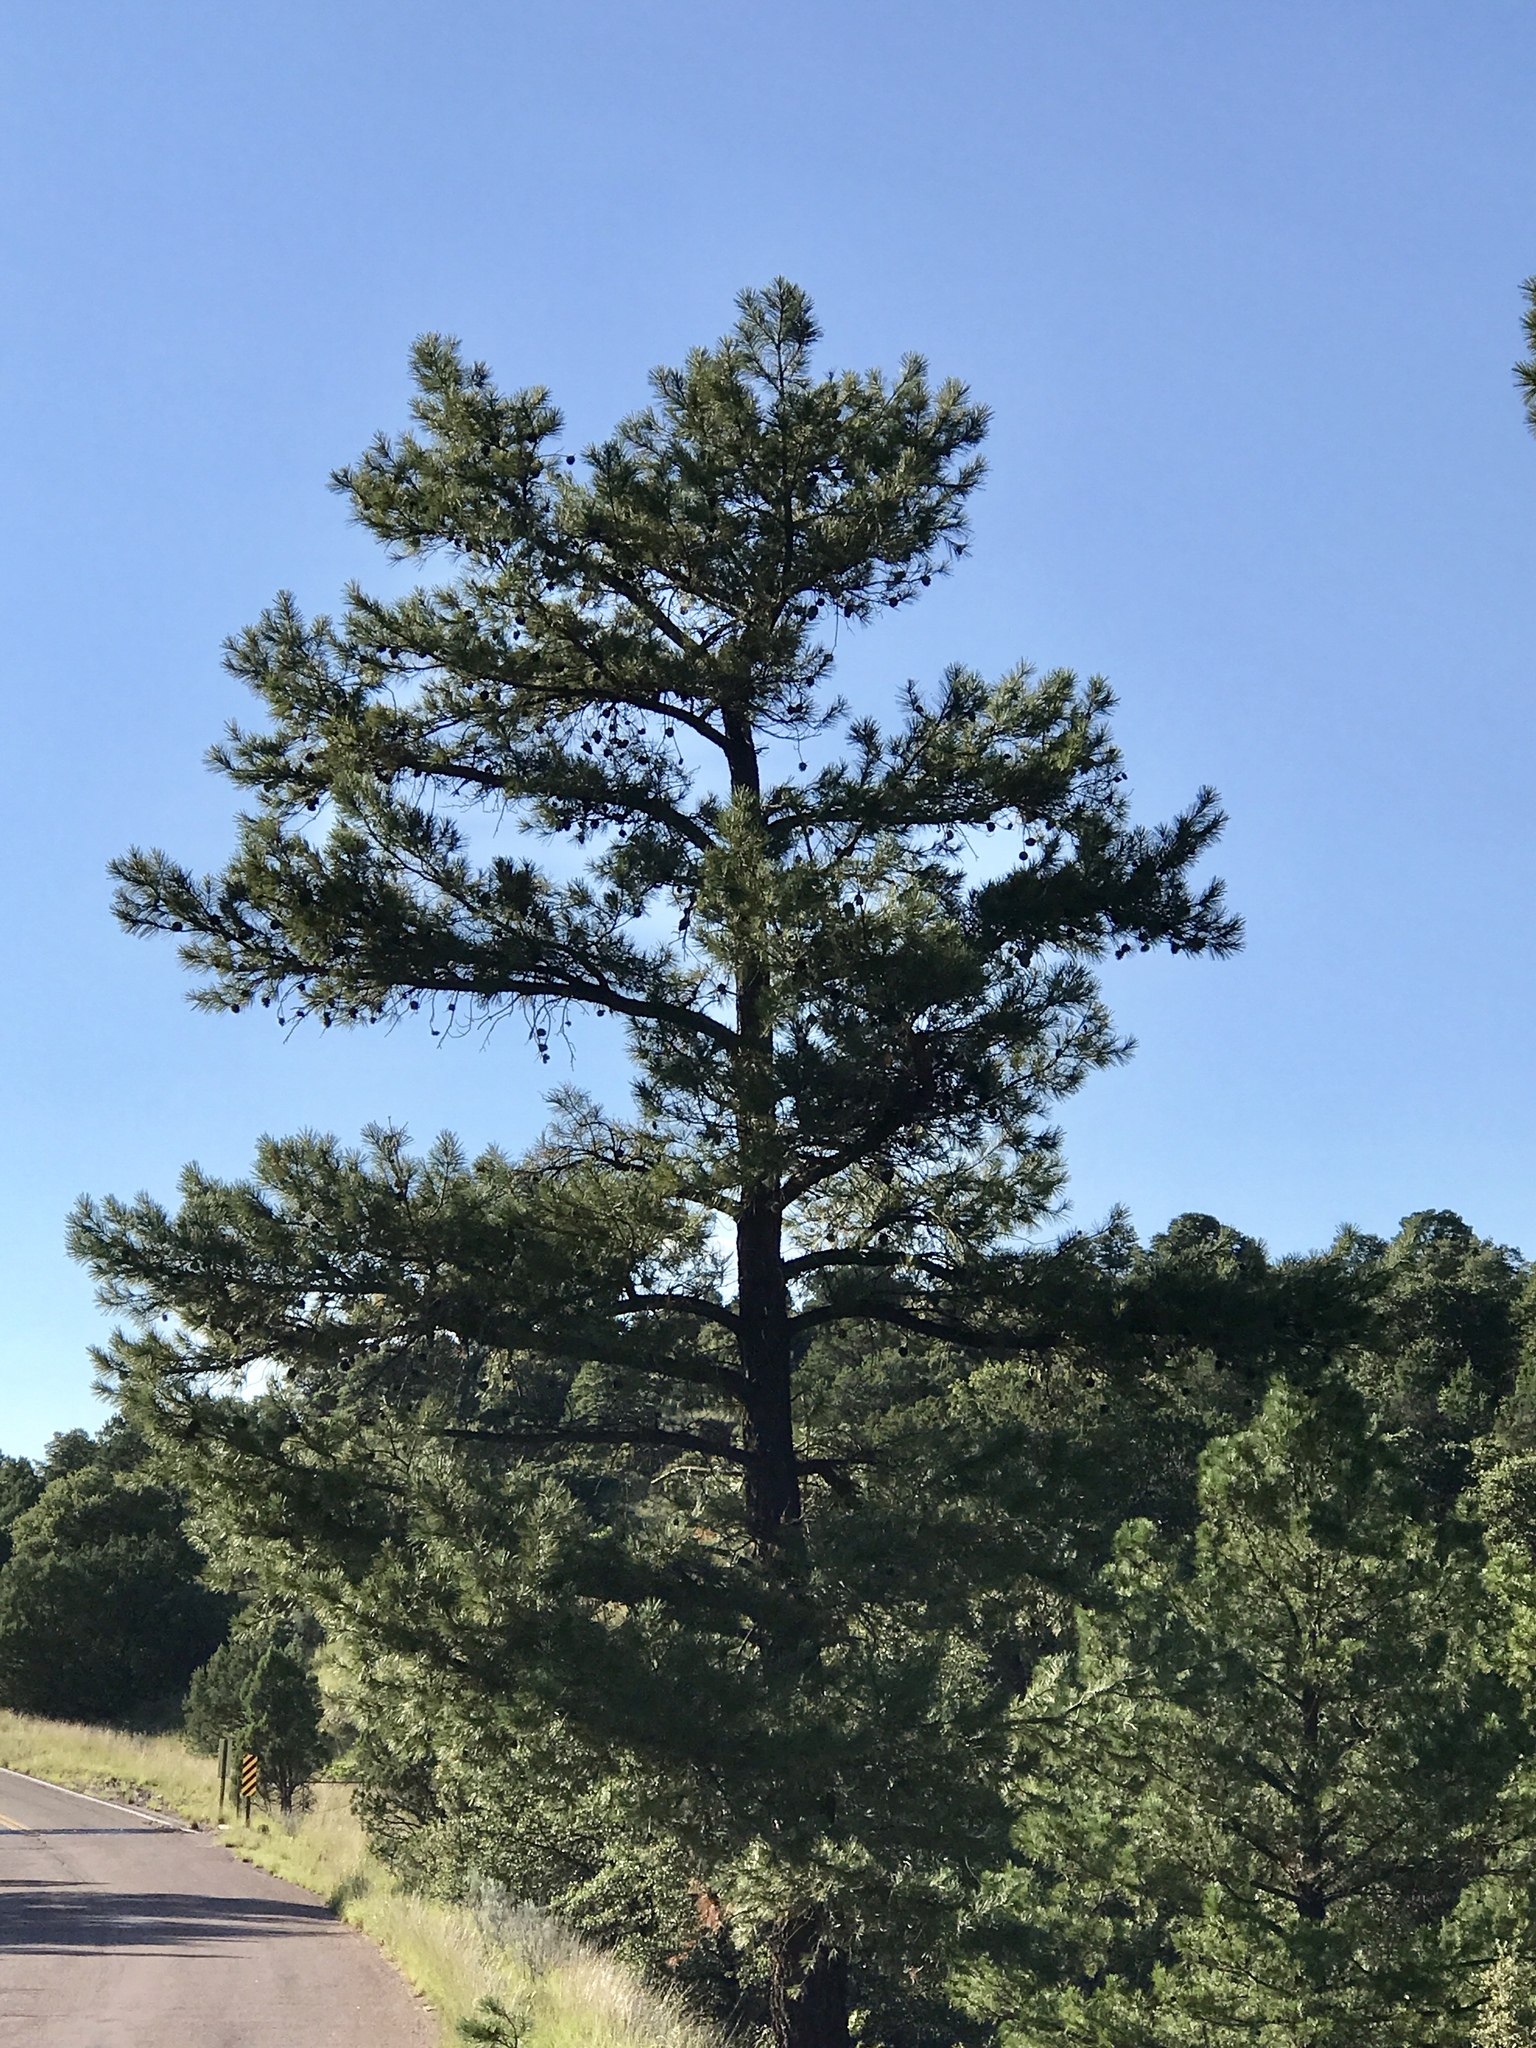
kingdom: Plantae
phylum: Tracheophyta
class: Pinopsida
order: Pinales
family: Pinaceae
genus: Pinus
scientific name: Pinus leiophylla
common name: Chihuahua pine
